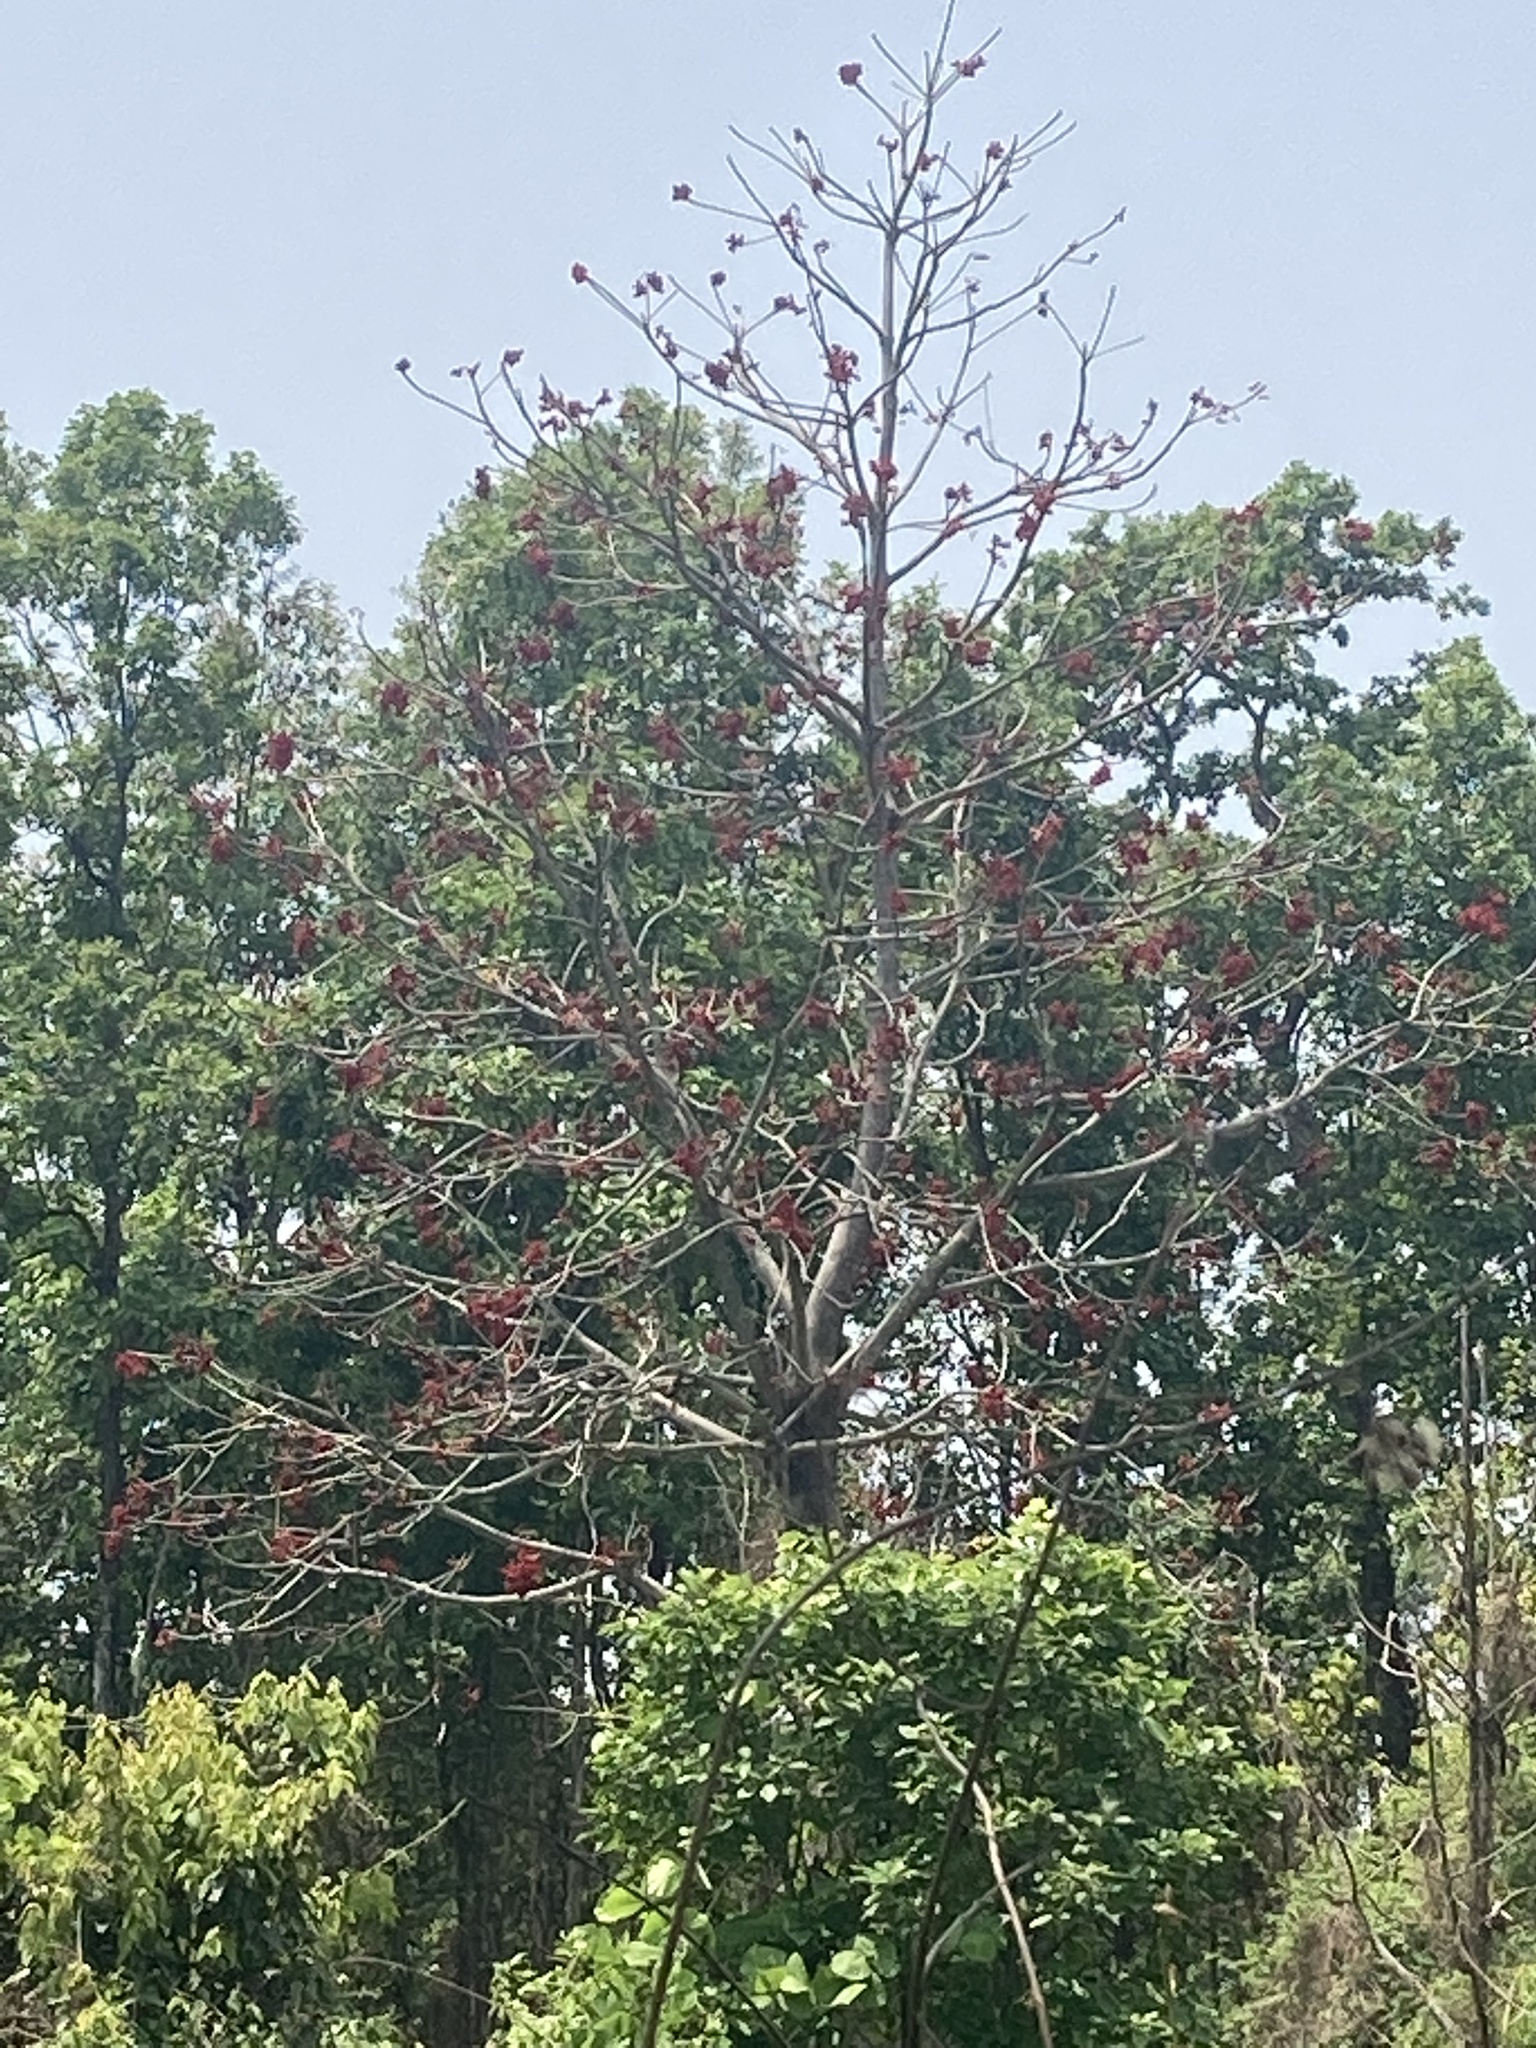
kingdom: Plantae
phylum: Tracheophyta
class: Magnoliopsida
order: Malvales
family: Malvaceae
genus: Bombax
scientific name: Bombax ceiba
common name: Northern-cottonwood
